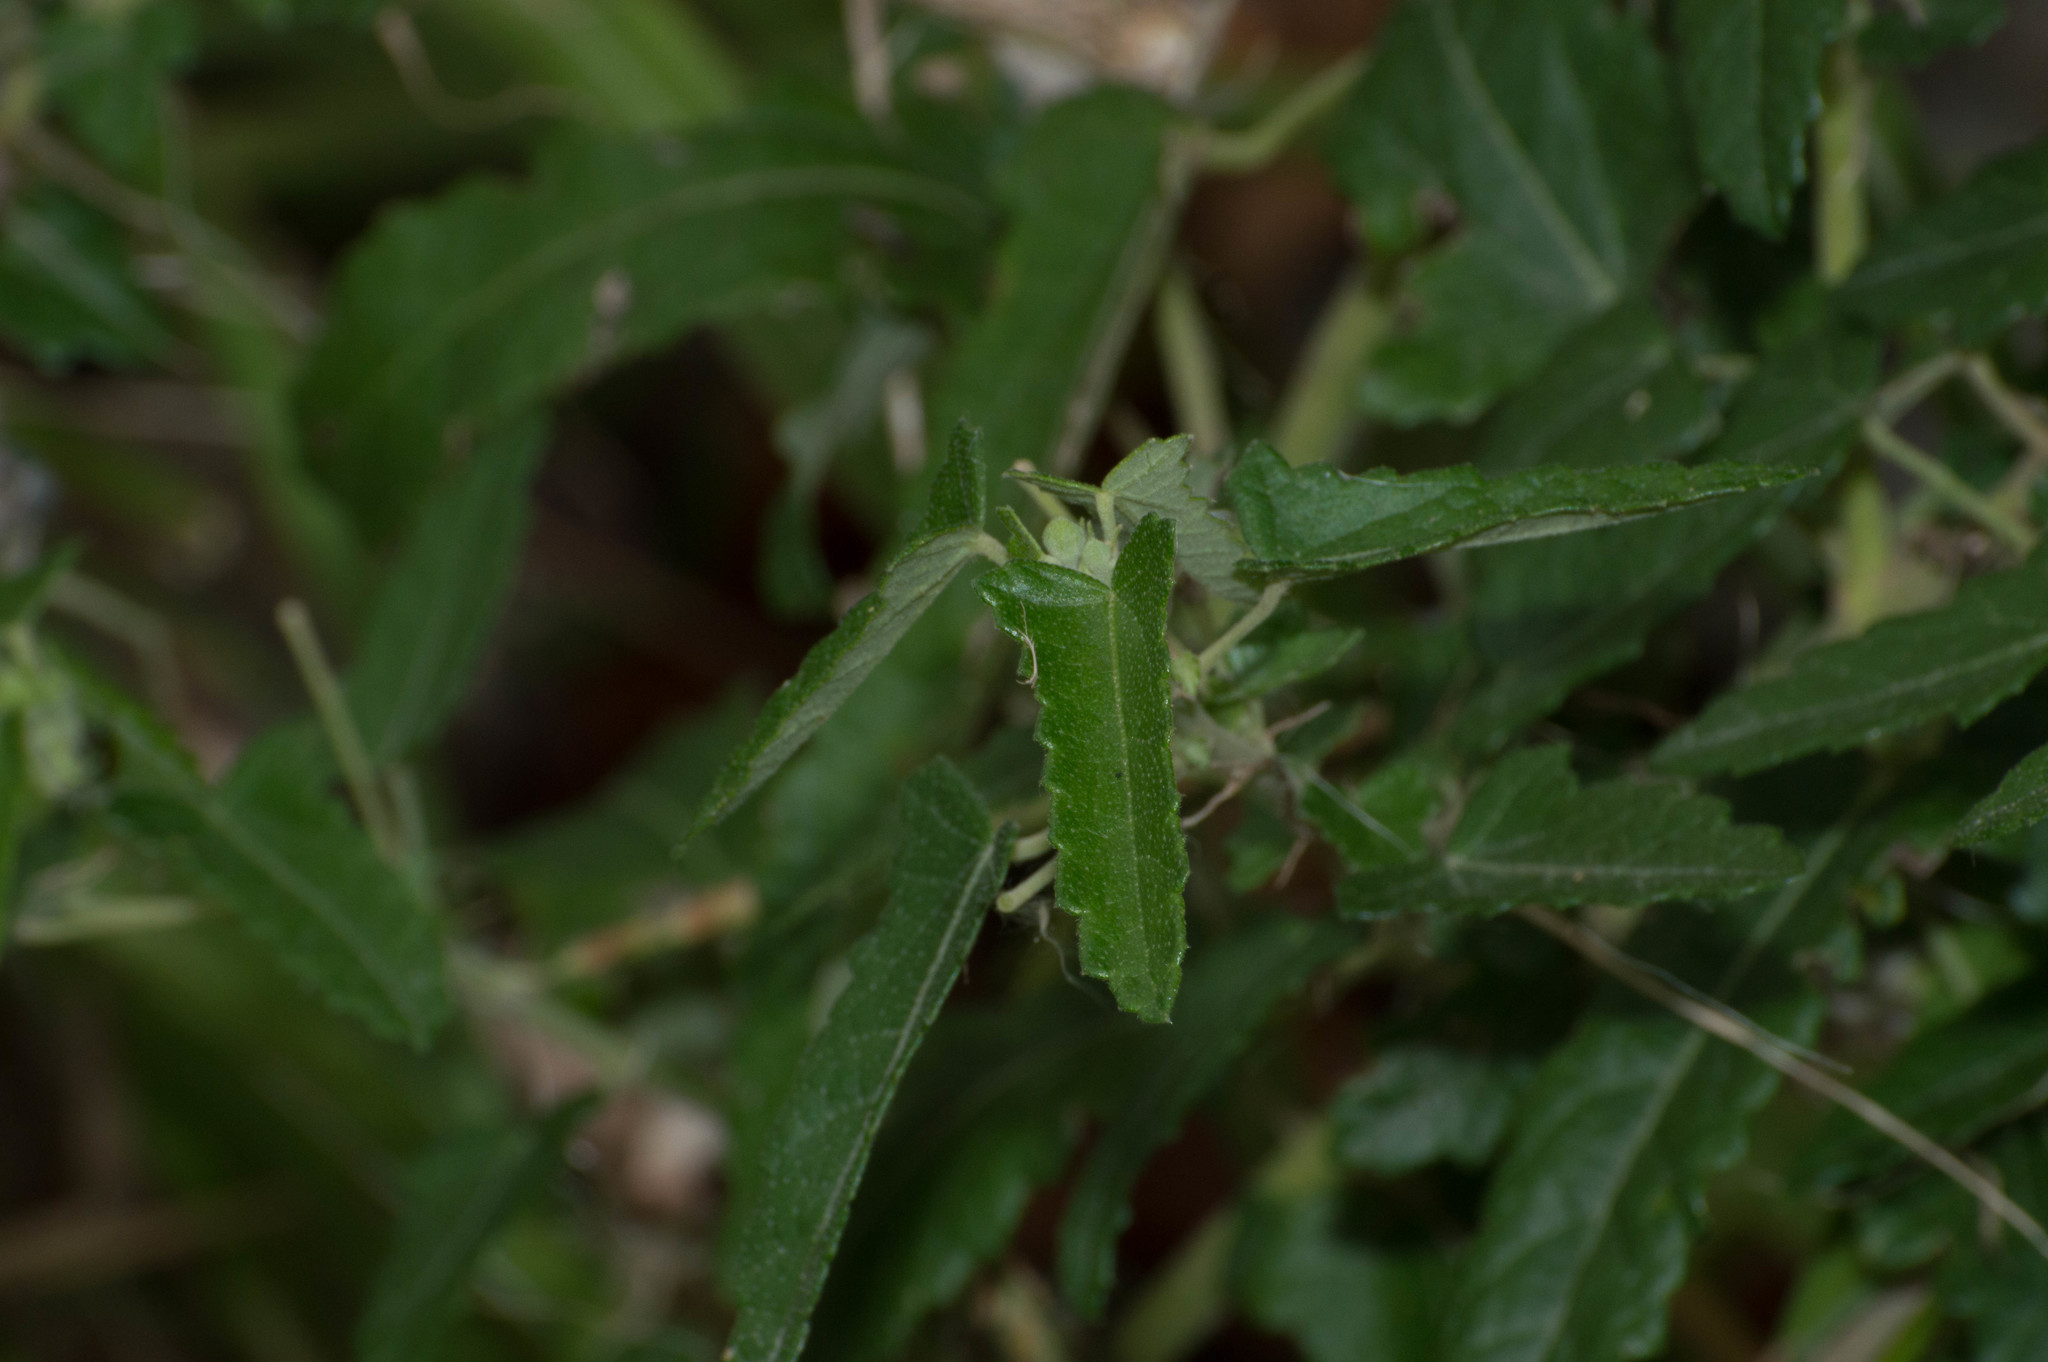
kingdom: Plantae
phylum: Tracheophyta
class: Magnoliopsida
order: Malvales
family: Malvaceae
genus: Pavonia
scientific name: Pavonia hastata
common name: Spearleaf swampmallow
